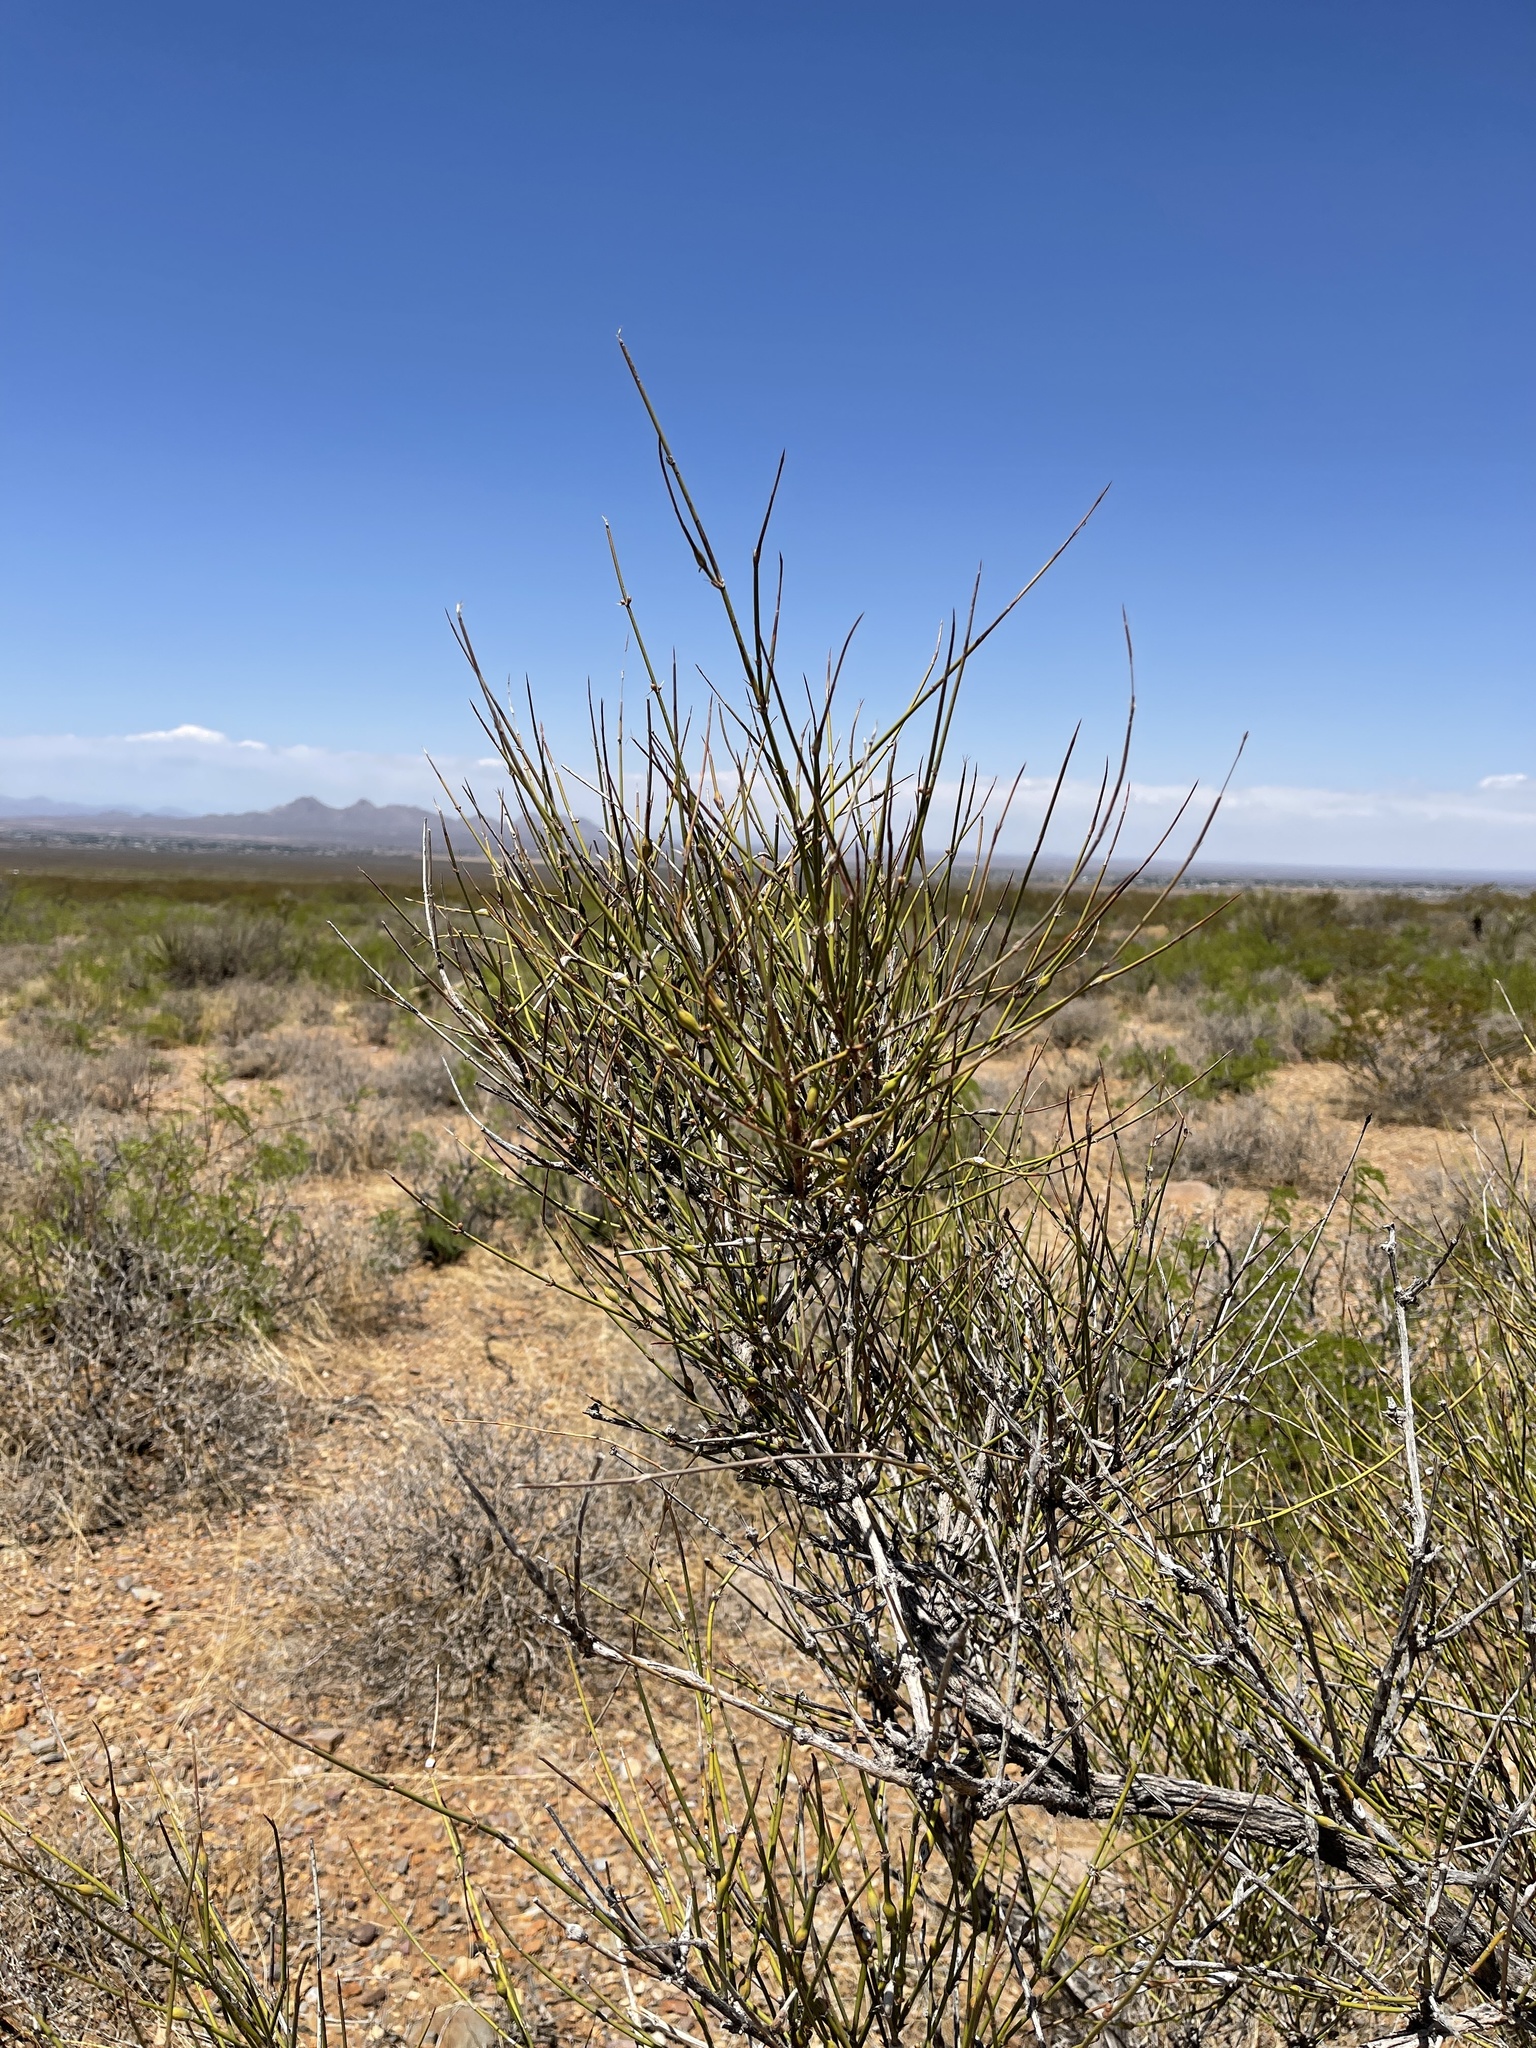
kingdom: Plantae
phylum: Tracheophyta
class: Gnetopsida
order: Ephedrales
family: Ephedraceae
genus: Ephedra
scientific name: Ephedra trifurca
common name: Mexican-tea
